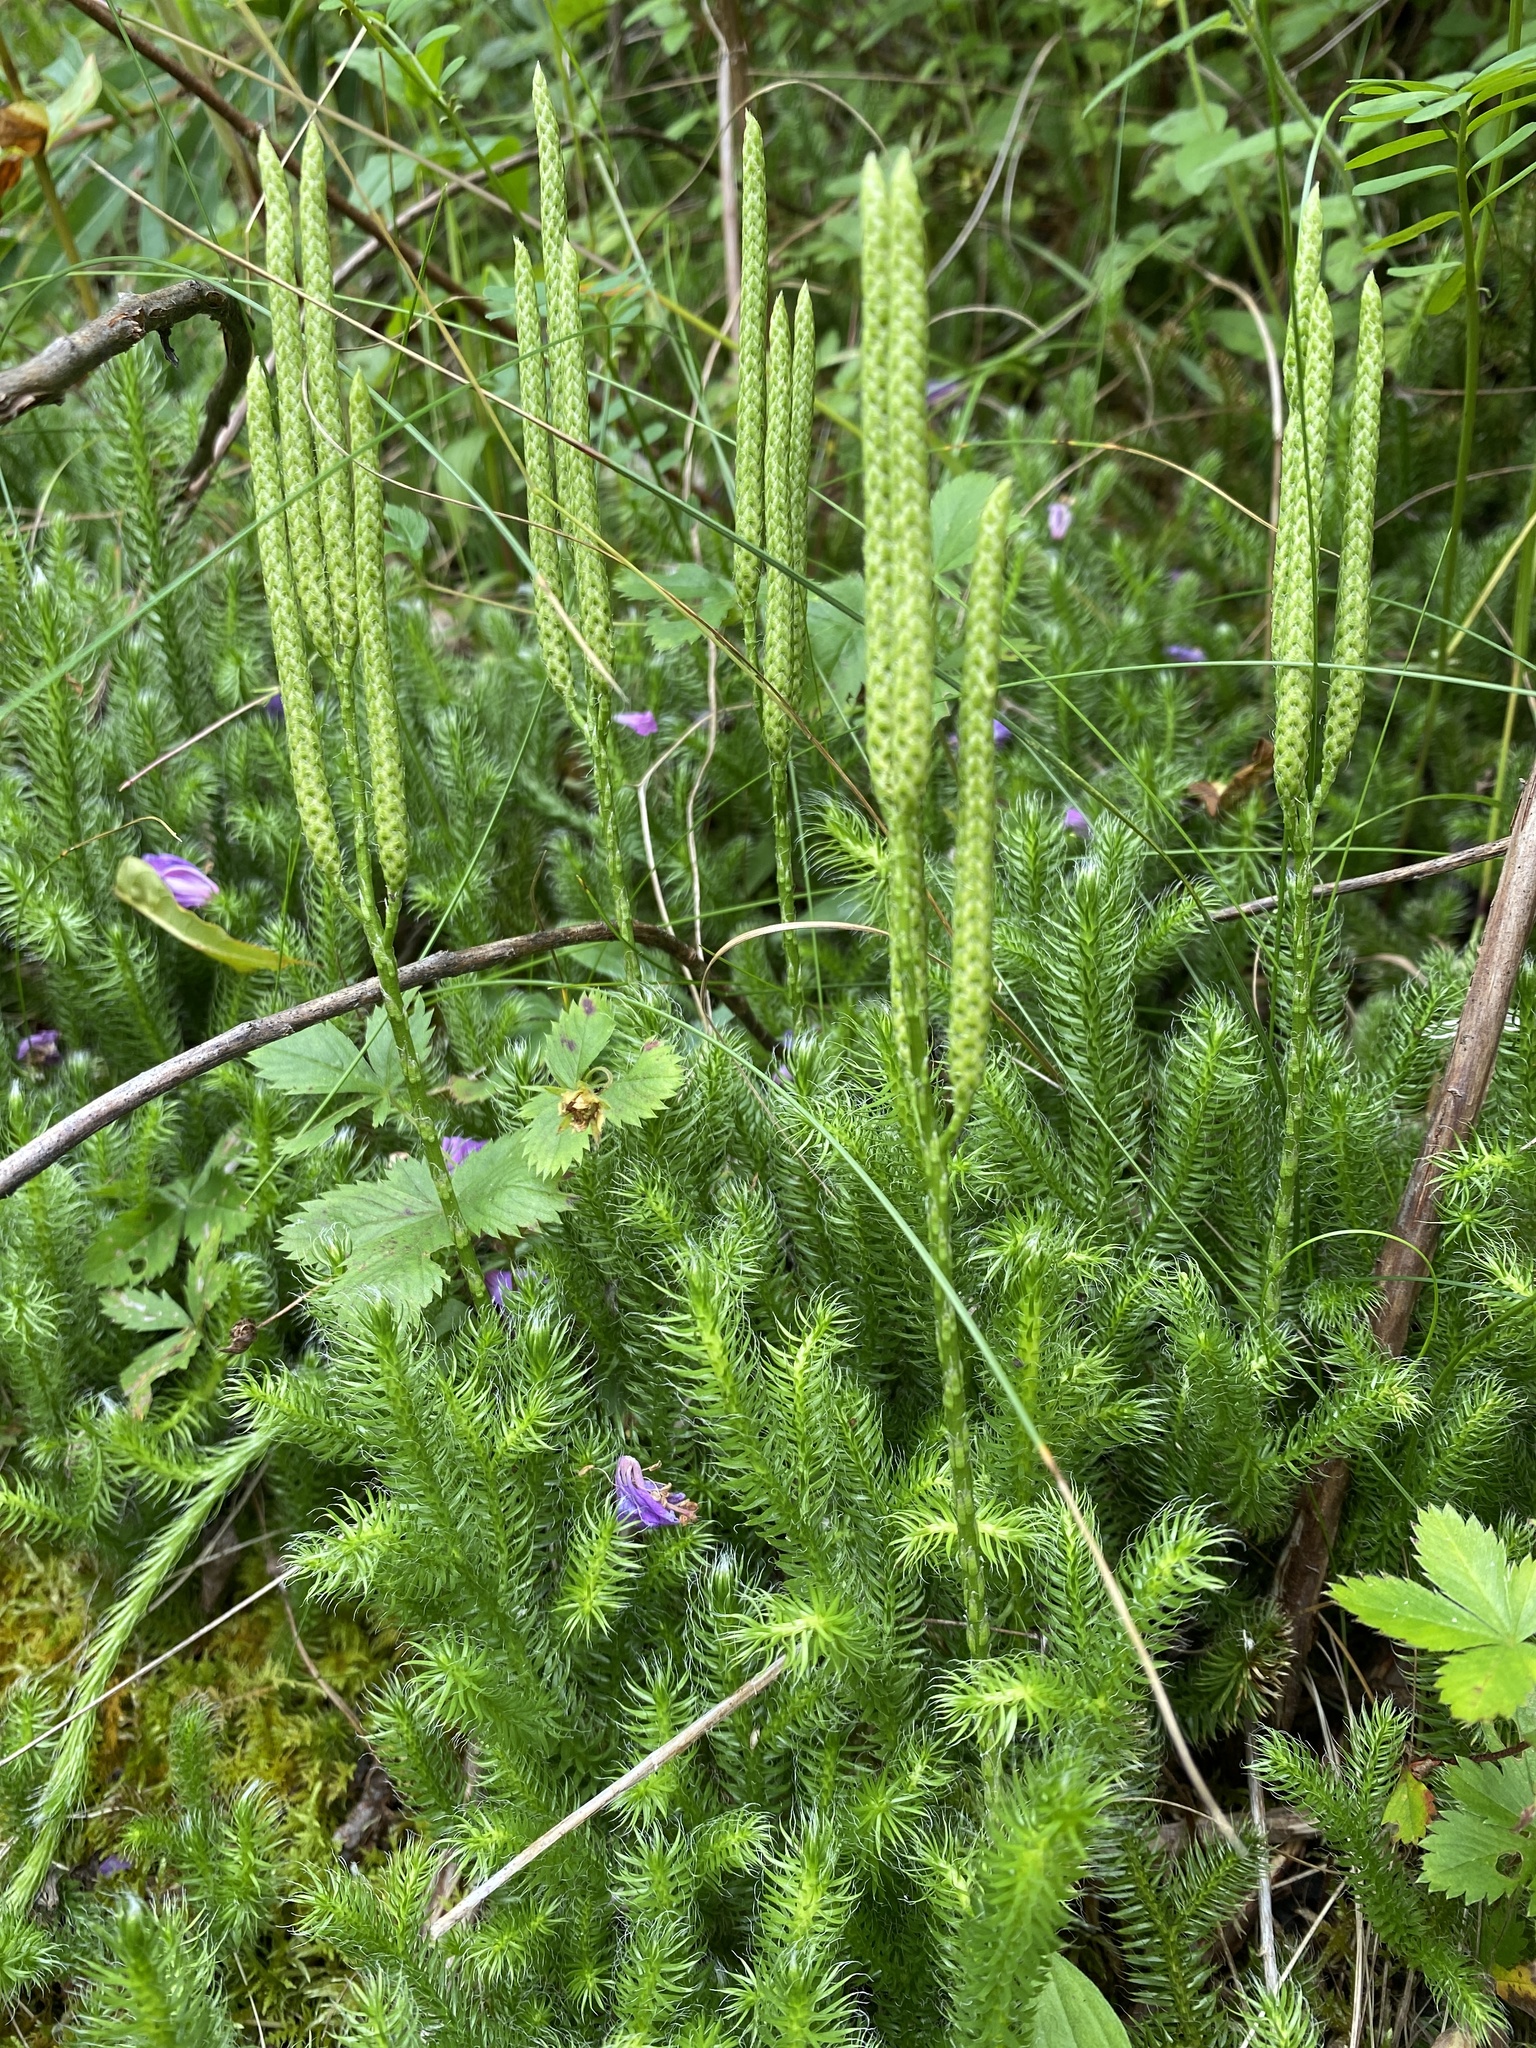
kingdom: Plantae
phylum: Tracheophyta
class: Lycopodiopsida
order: Lycopodiales
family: Lycopodiaceae
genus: Lycopodium
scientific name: Lycopodium clavatum
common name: Stag's-horn clubmoss
